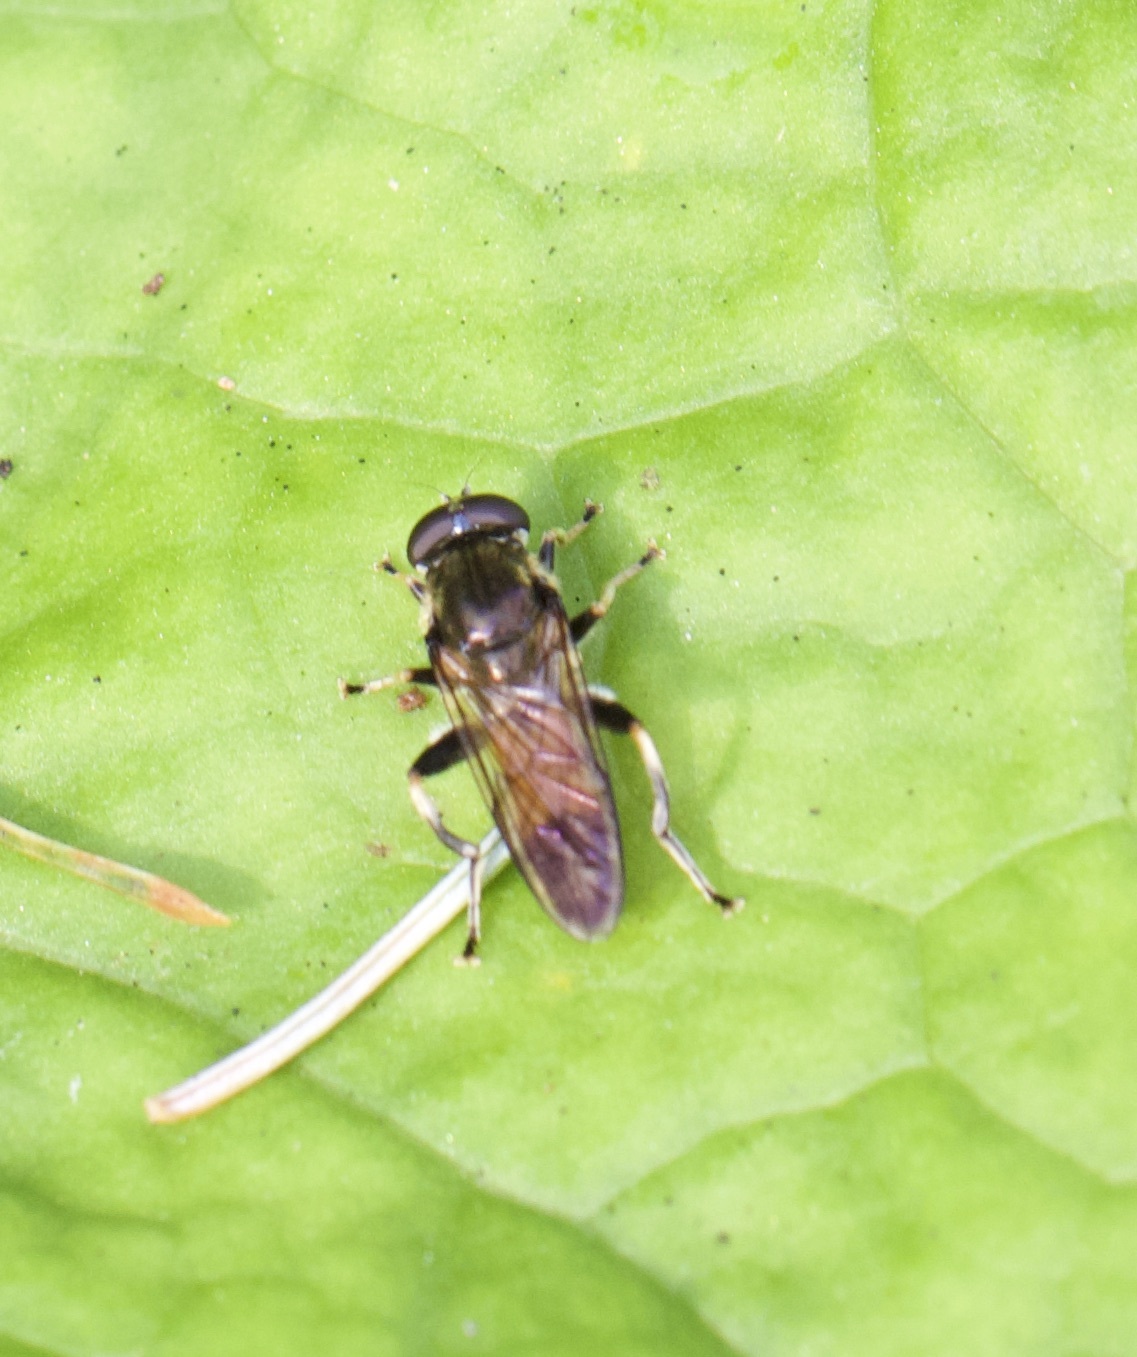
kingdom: Animalia
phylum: Arthropoda
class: Insecta
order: Diptera
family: Syrphidae
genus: Xylota
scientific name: Xylota segnis
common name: Brown-toed forest fly
